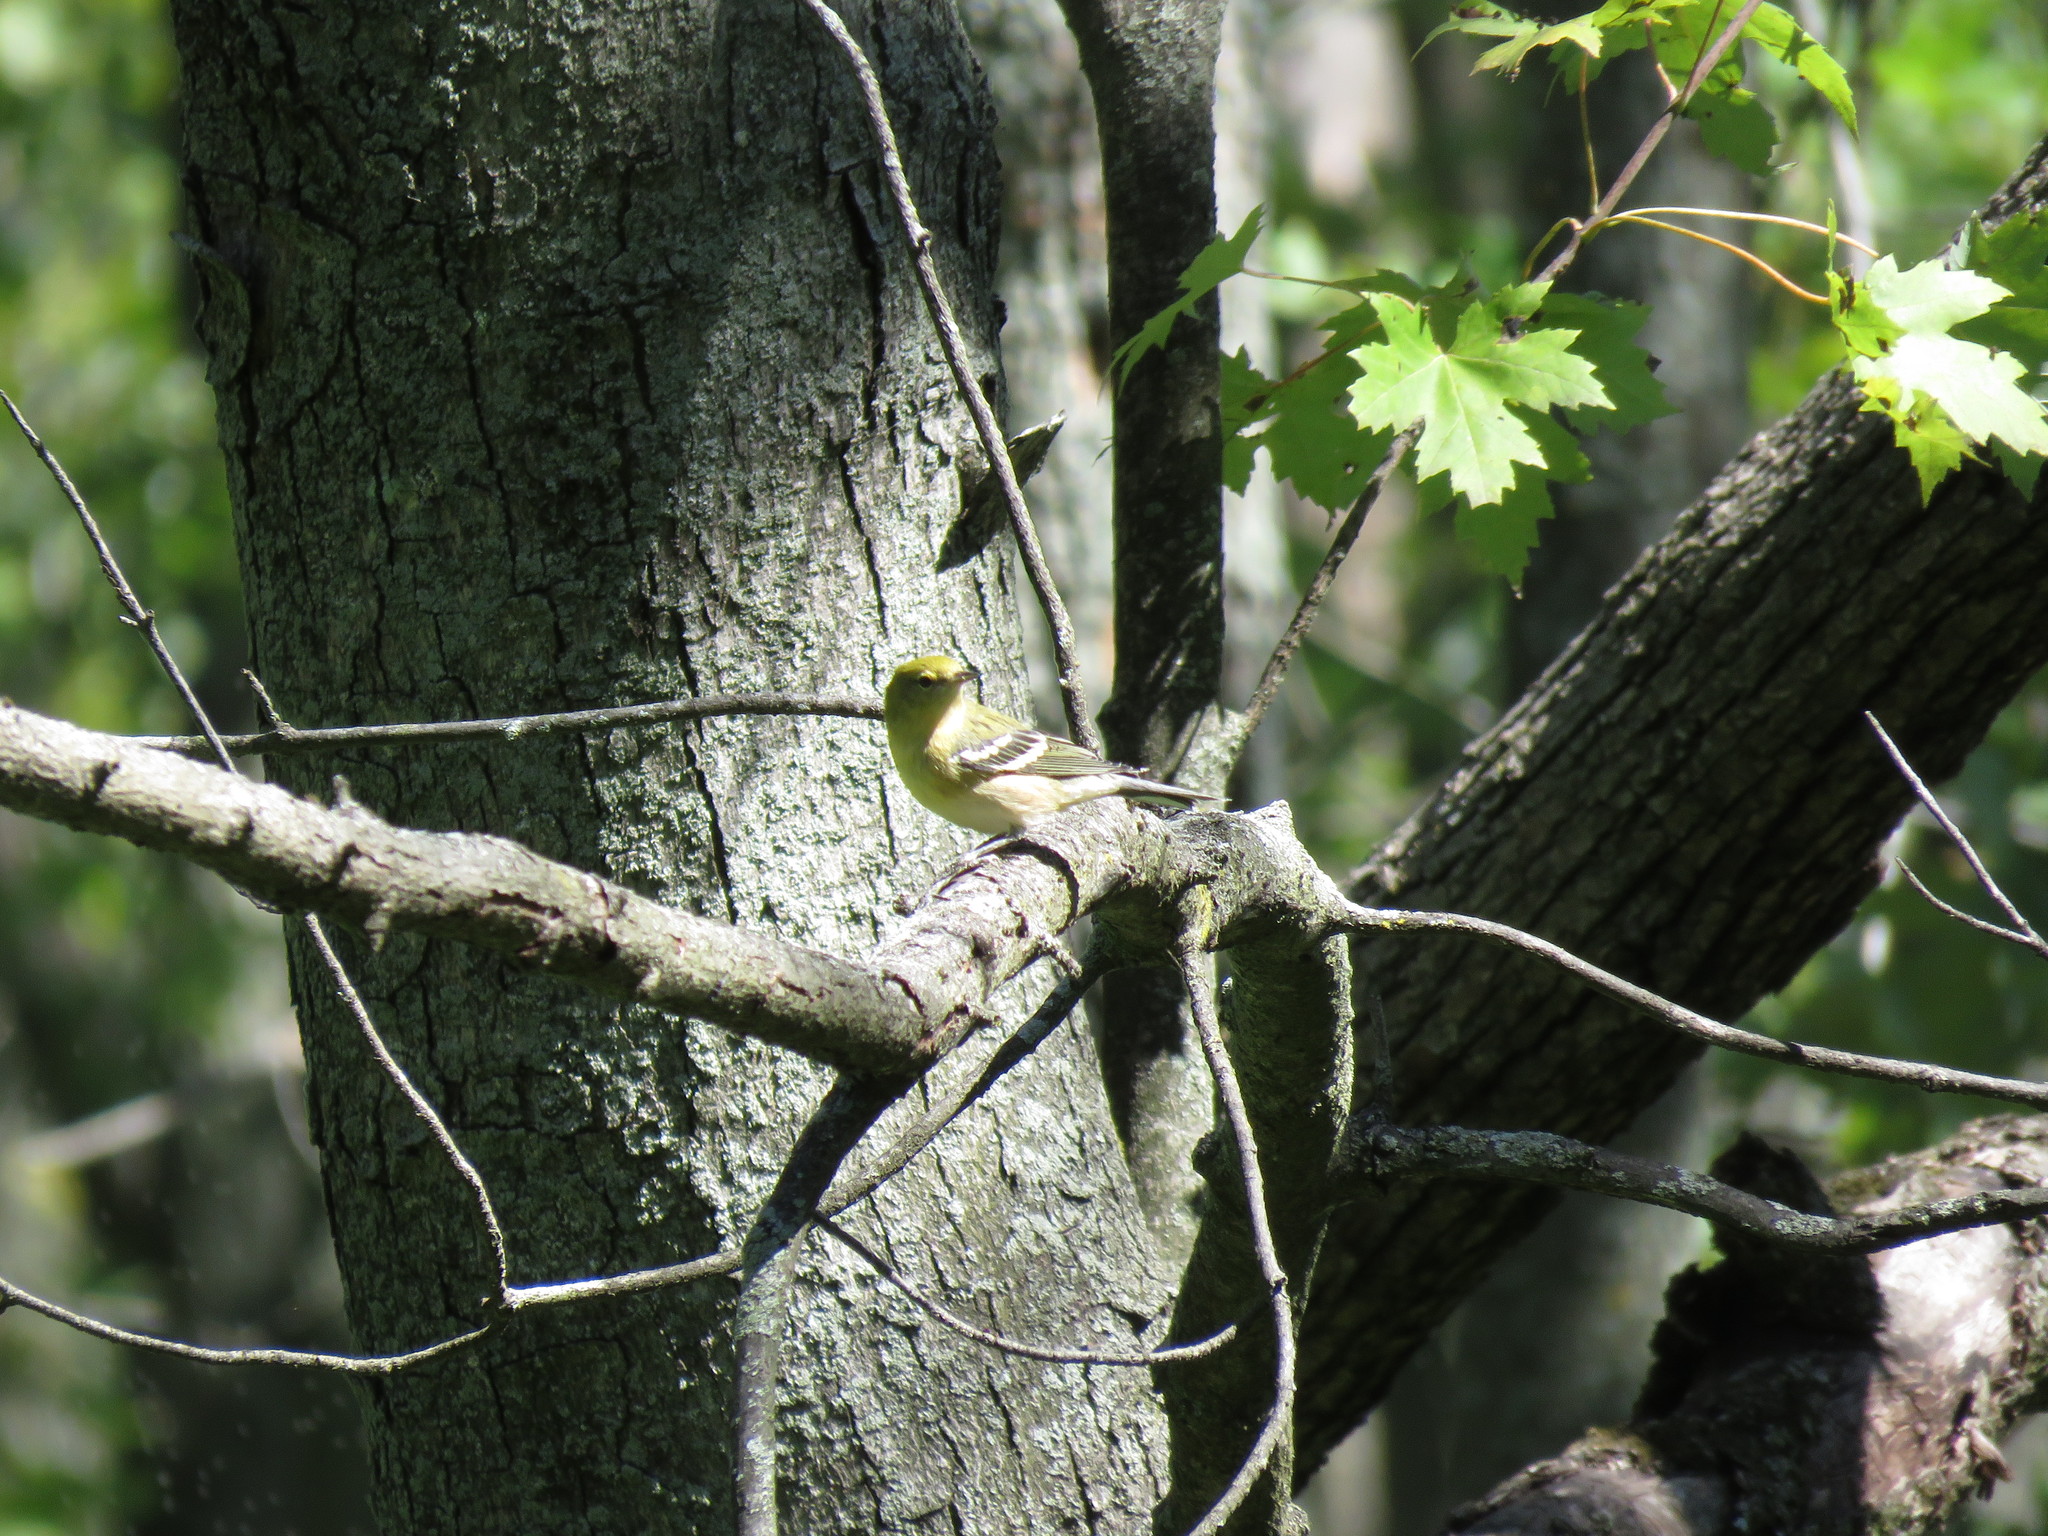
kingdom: Animalia
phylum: Chordata
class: Aves
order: Passeriformes
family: Parulidae
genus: Setophaga
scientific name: Setophaga castanea
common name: Bay-breasted warbler
